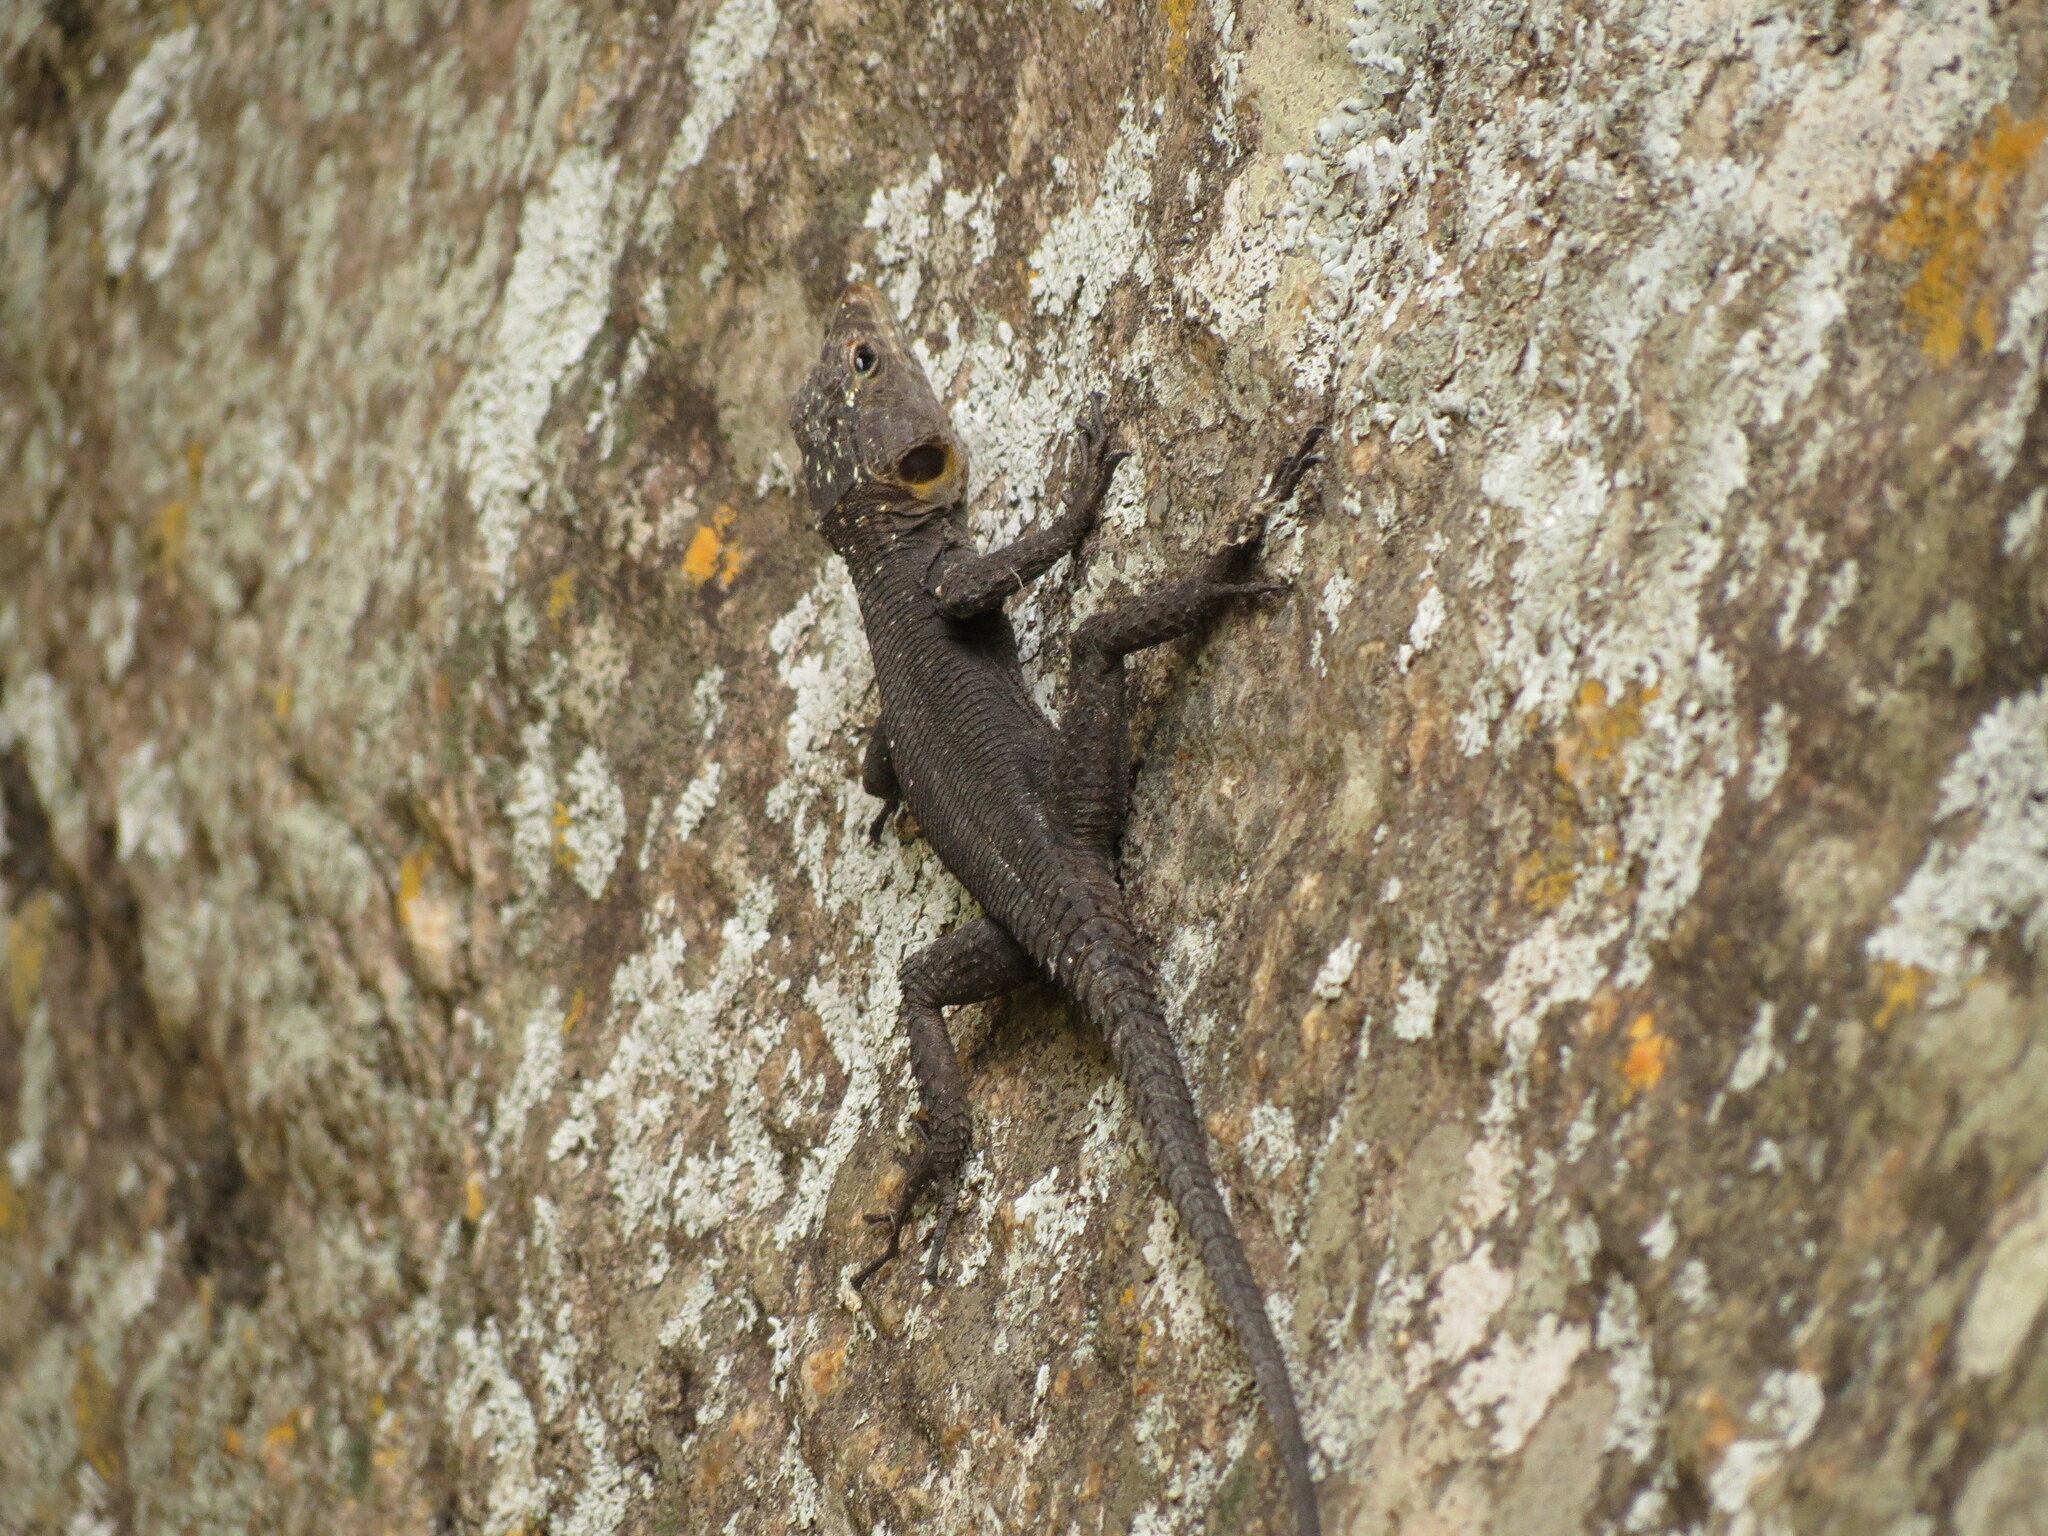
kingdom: Animalia
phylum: Chordata
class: Squamata
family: Cordylidae
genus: Hemicordylus
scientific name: Hemicordylus capensis
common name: Graceful crag lizard
